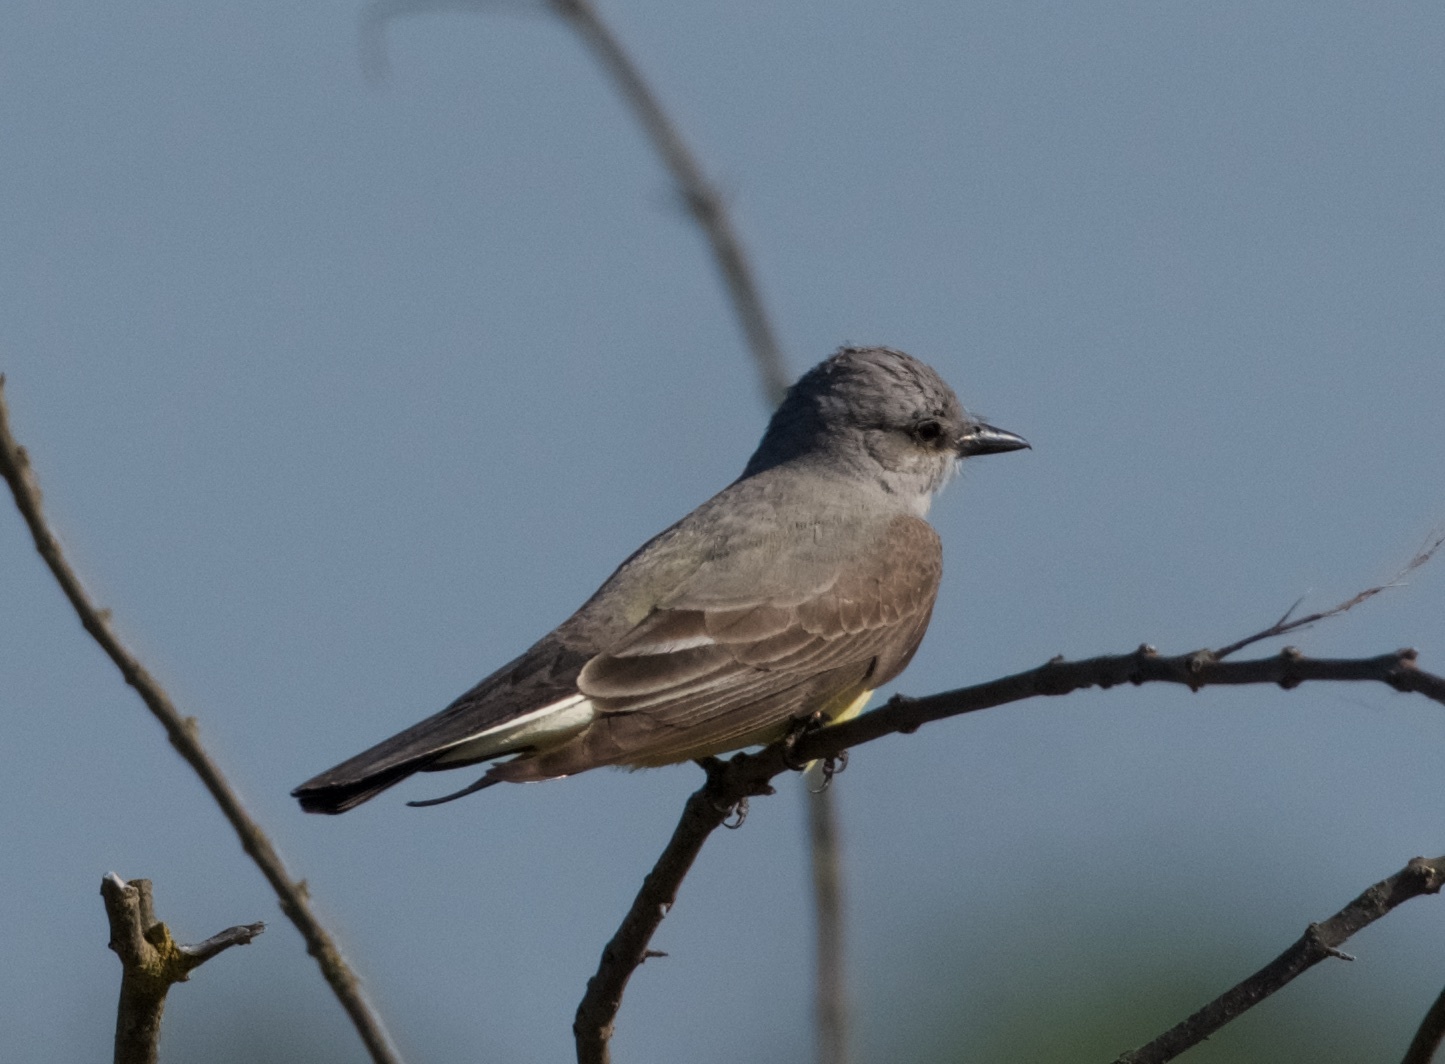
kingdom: Animalia
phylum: Chordata
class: Aves
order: Passeriformes
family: Tyrannidae
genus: Tyrannus
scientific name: Tyrannus verticalis
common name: Western kingbird
